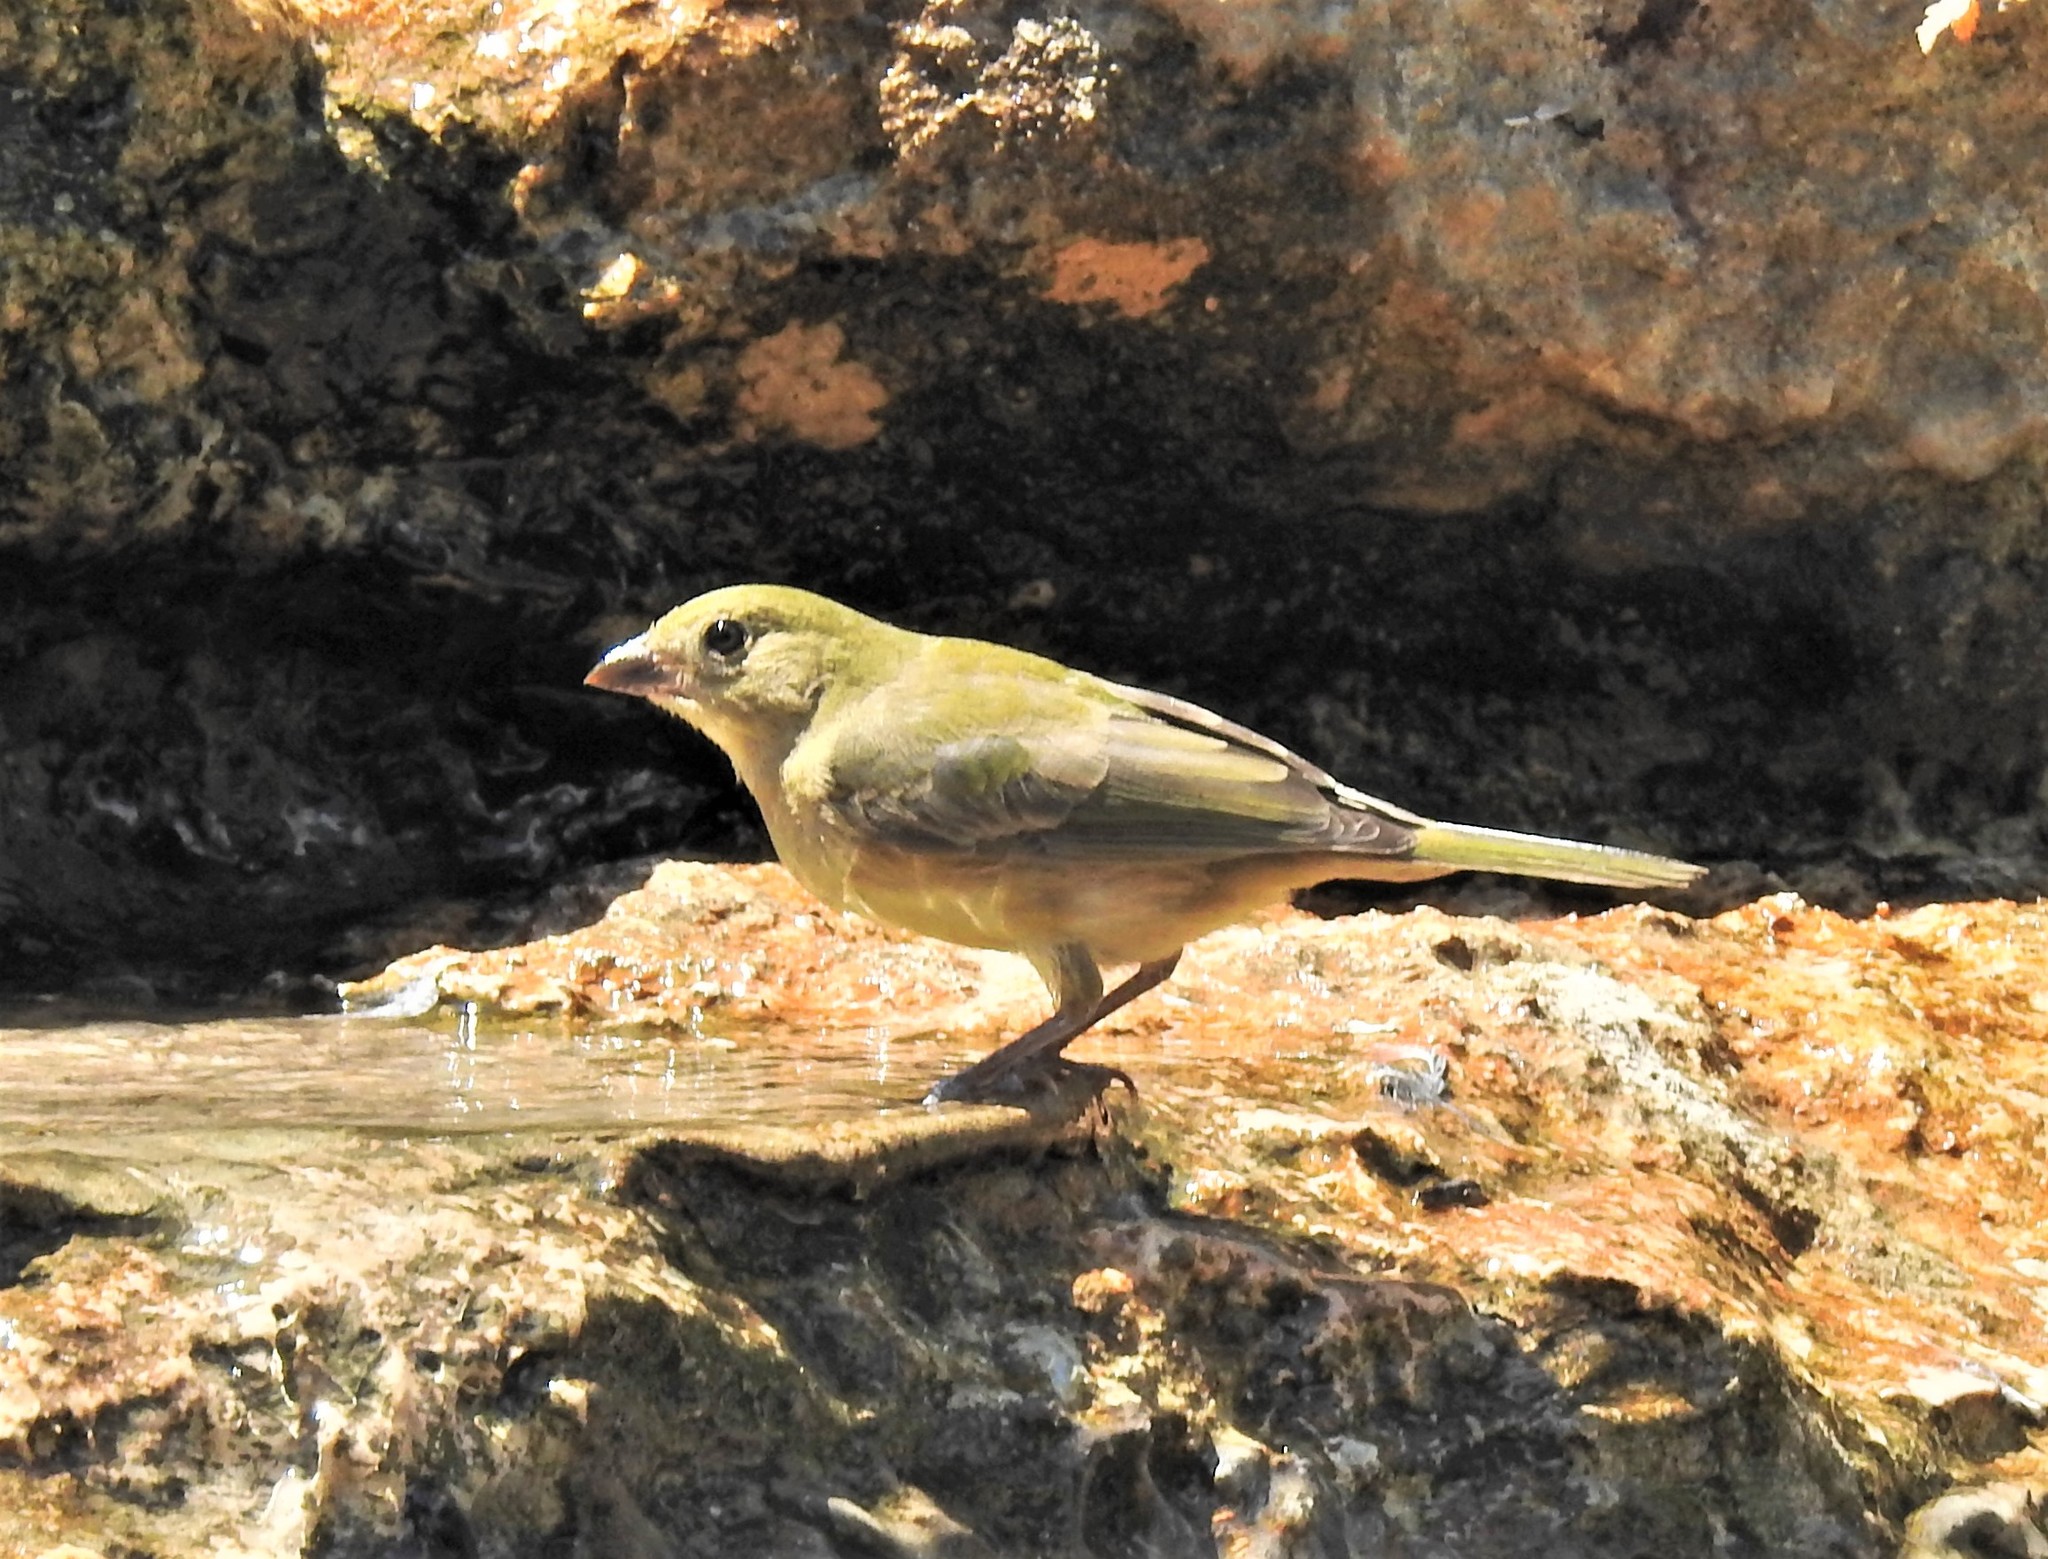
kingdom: Animalia
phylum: Chordata
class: Aves
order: Passeriformes
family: Cardinalidae
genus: Passerina
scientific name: Passerina ciris
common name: Painted bunting
